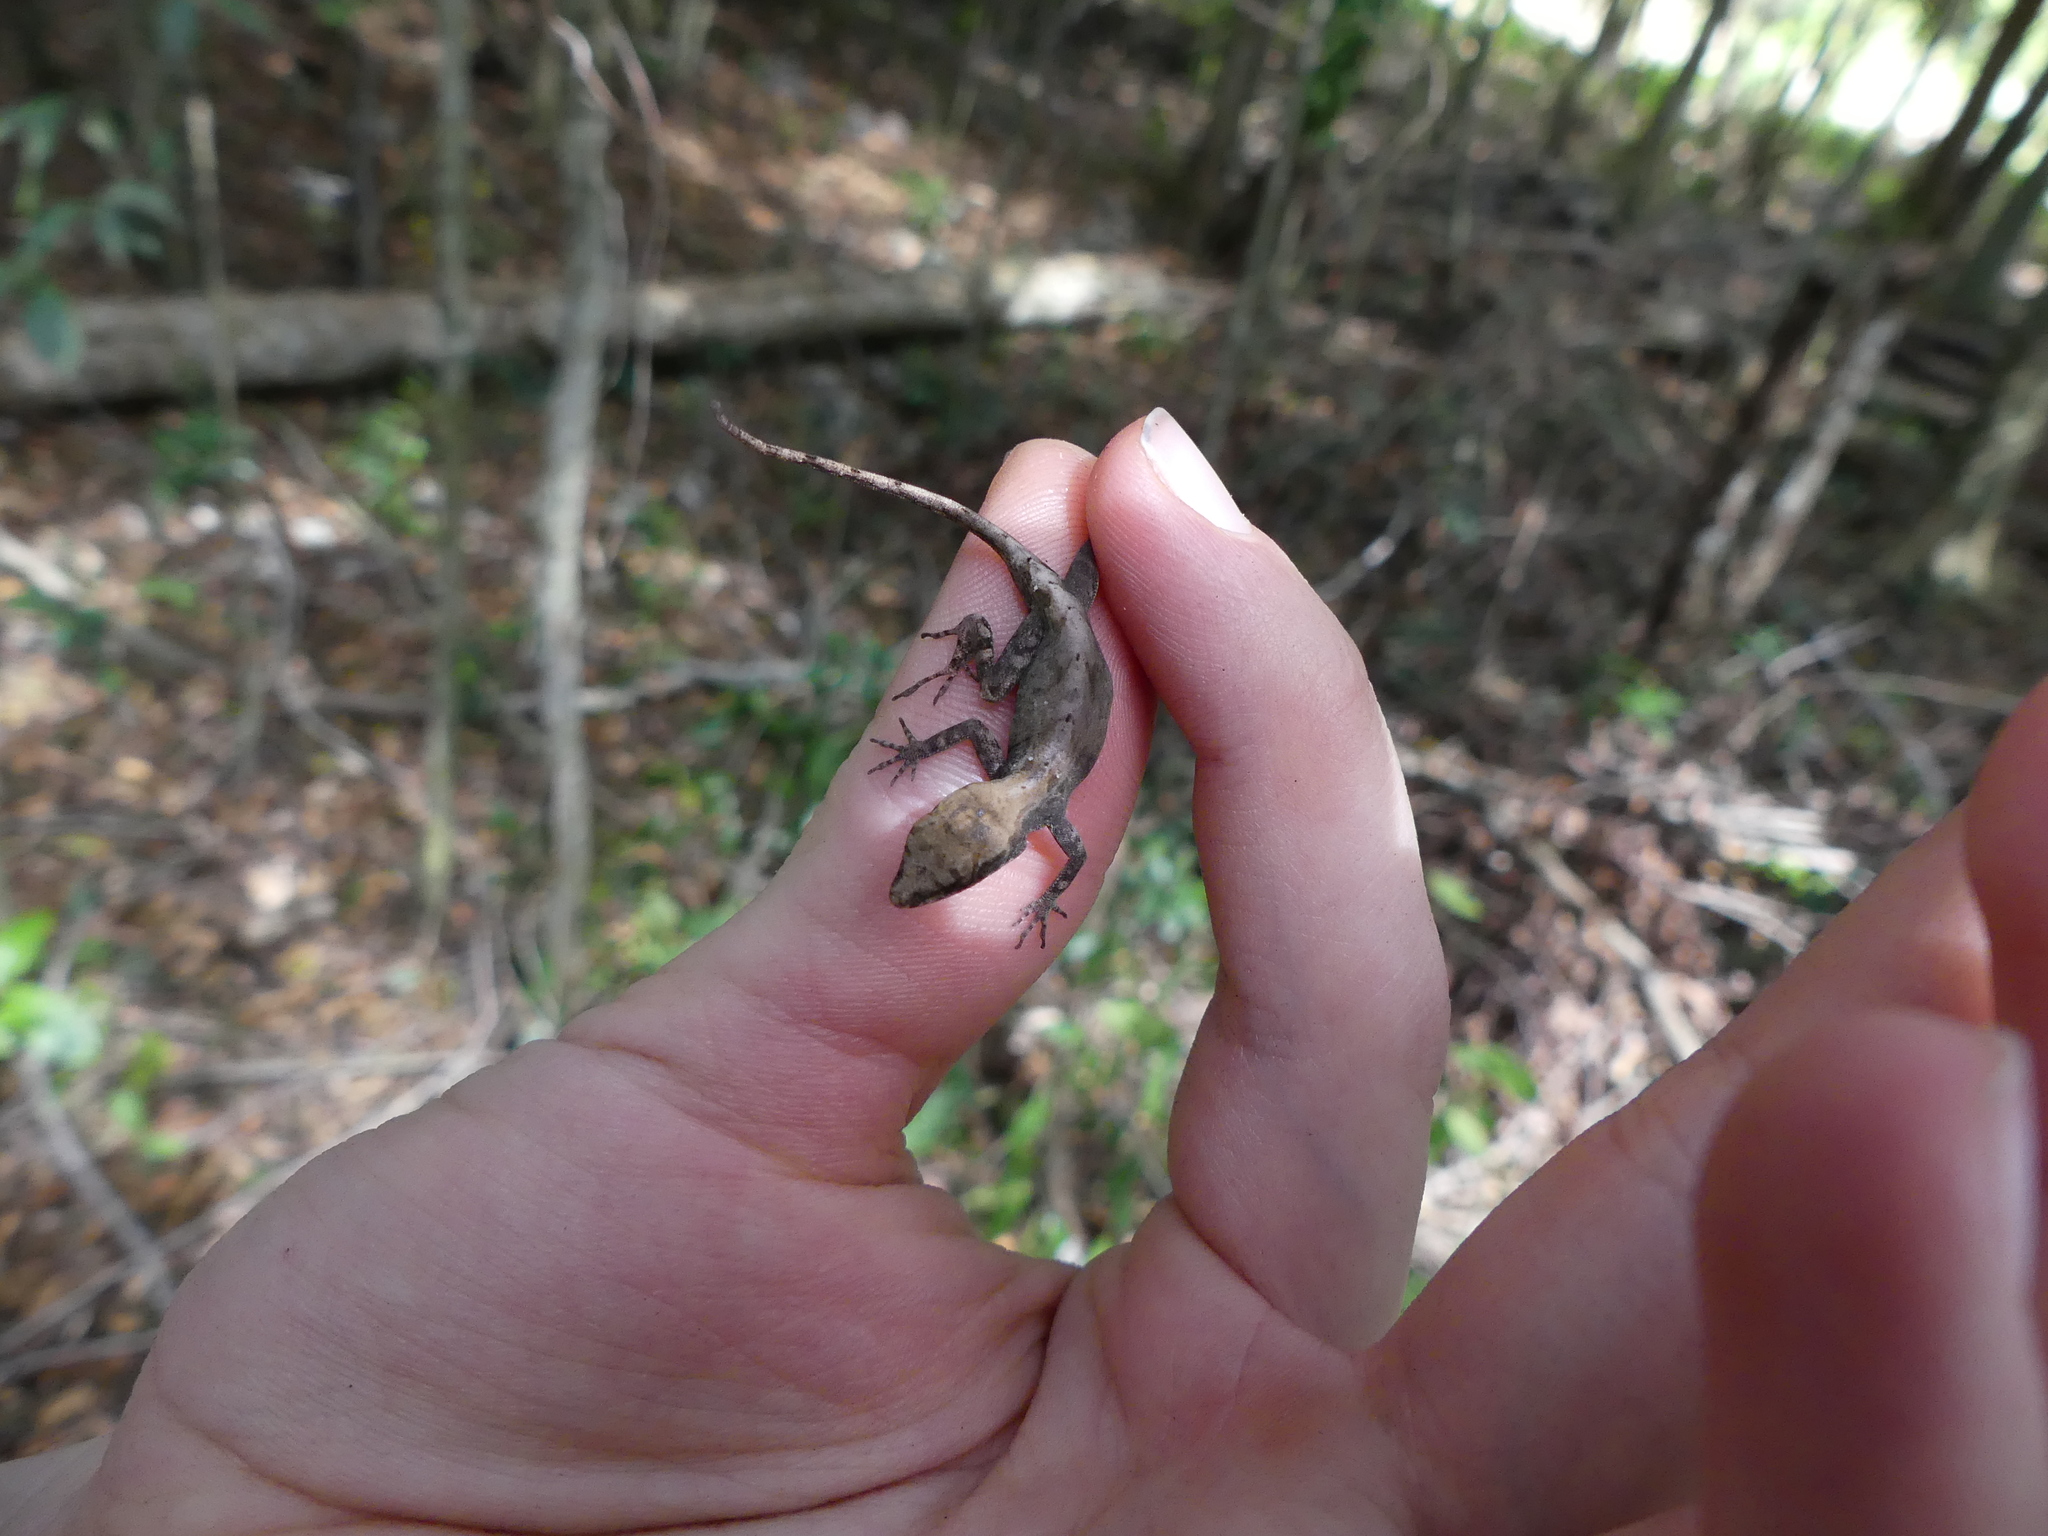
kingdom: Animalia
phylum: Chordata
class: Squamata
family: Dactyloidae
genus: Anolis
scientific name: Anolis sagrei
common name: Brown anole
